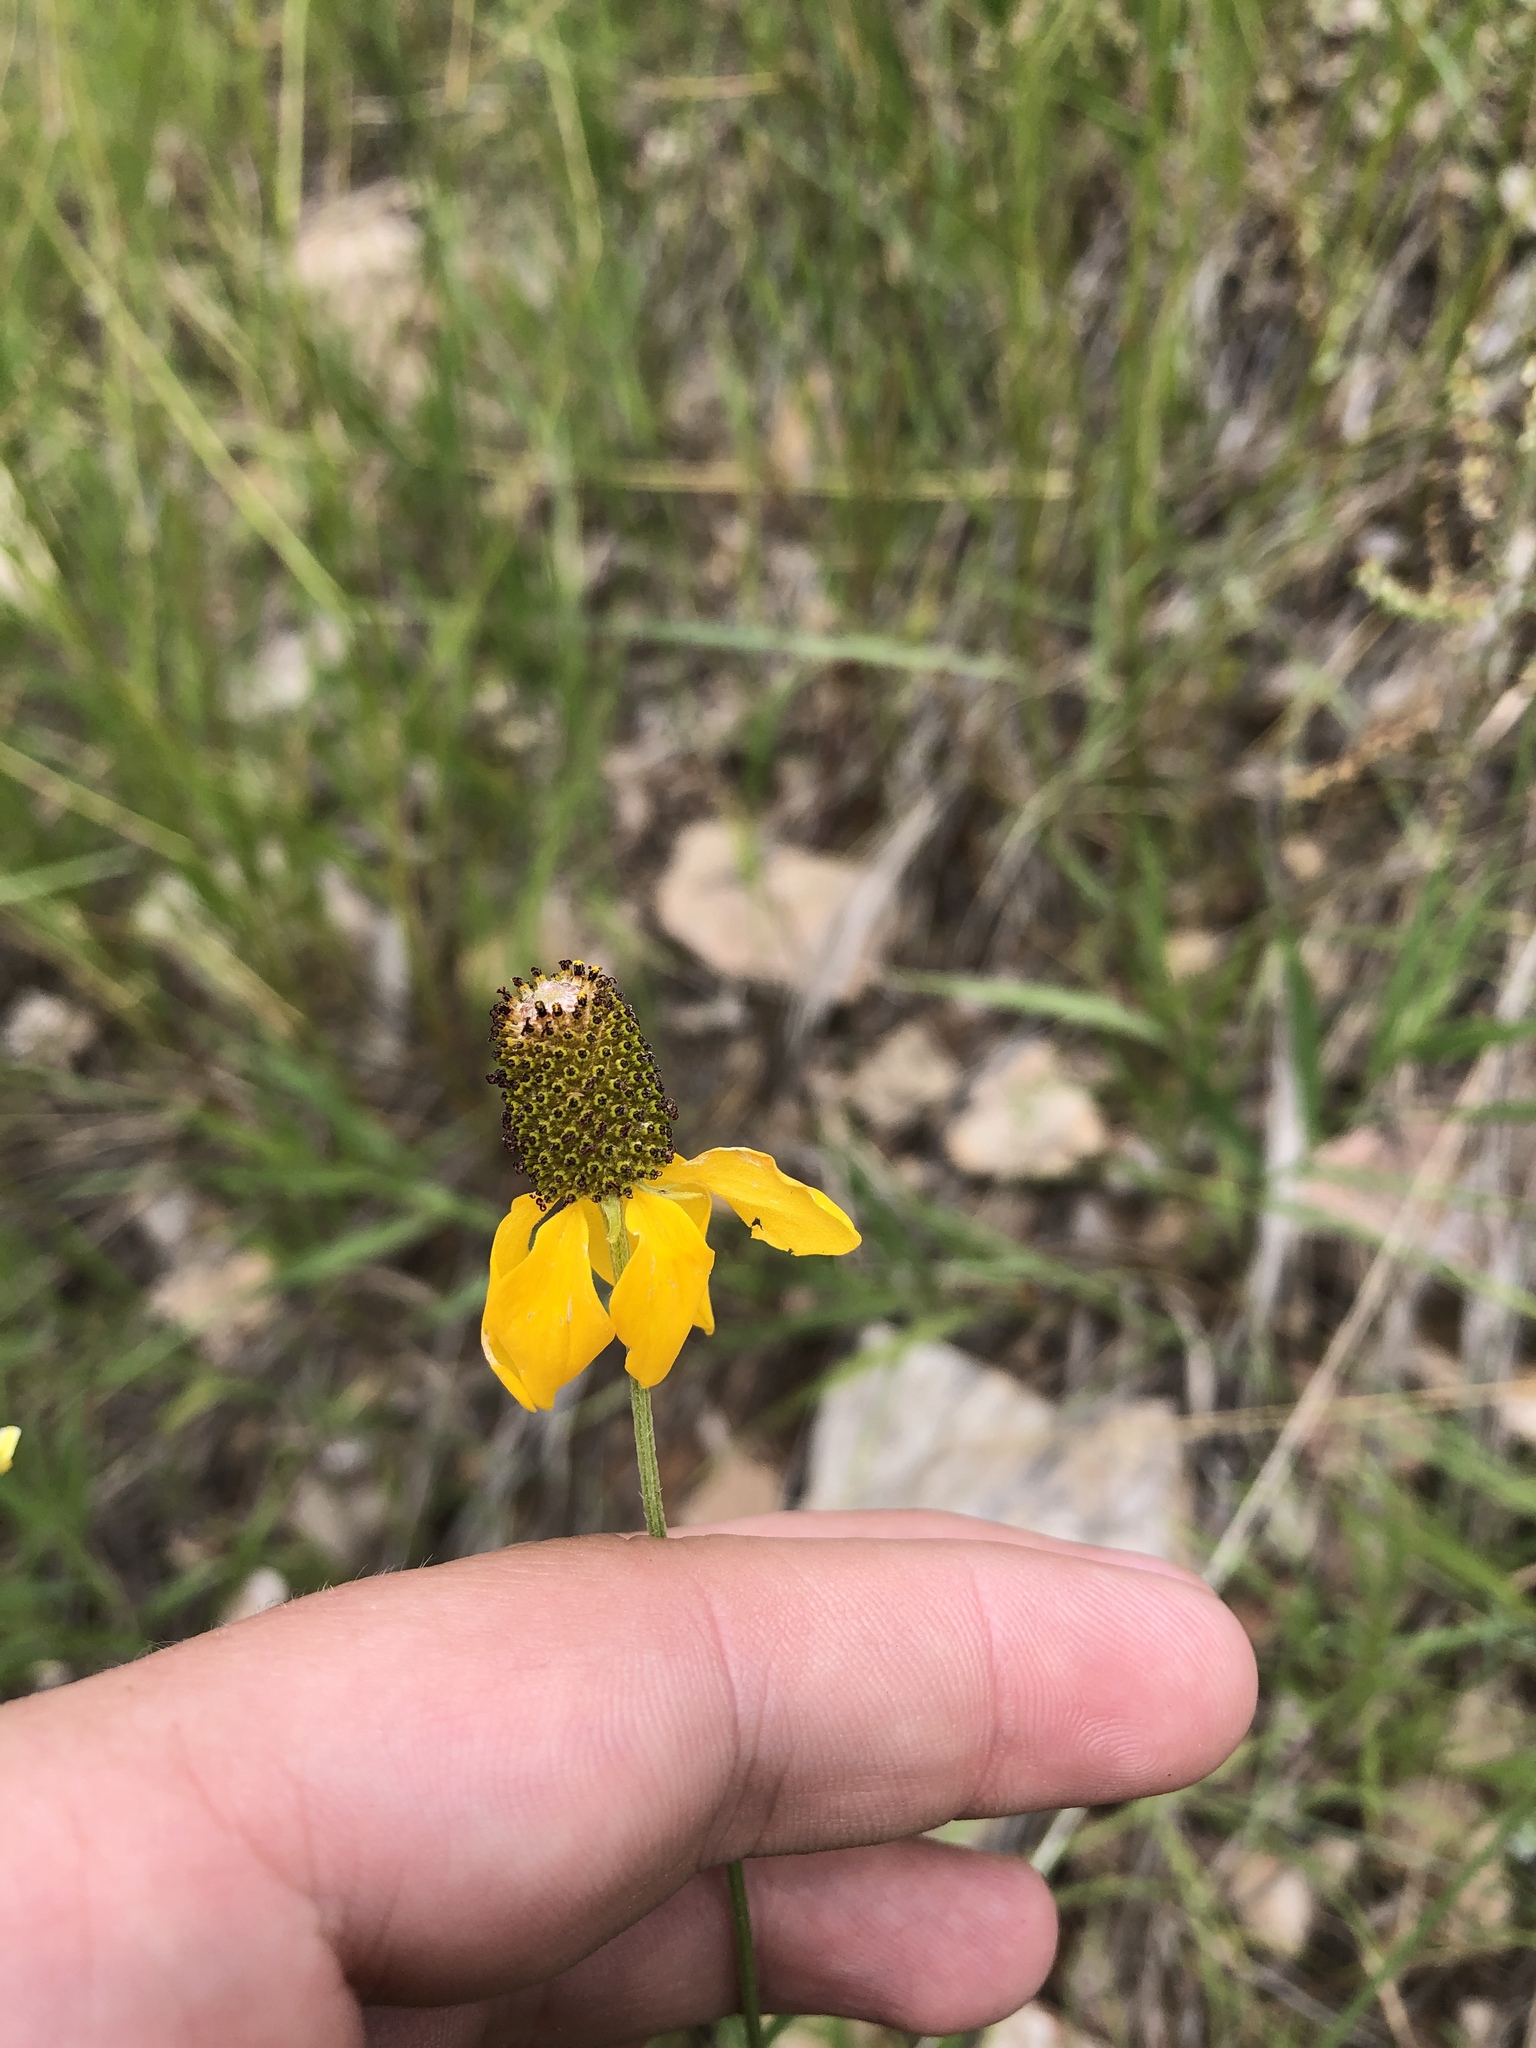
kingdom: Plantae
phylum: Tracheophyta
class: Magnoliopsida
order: Asterales
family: Asteraceae
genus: Ratibida
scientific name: Ratibida columnifera
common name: Prairie coneflower
